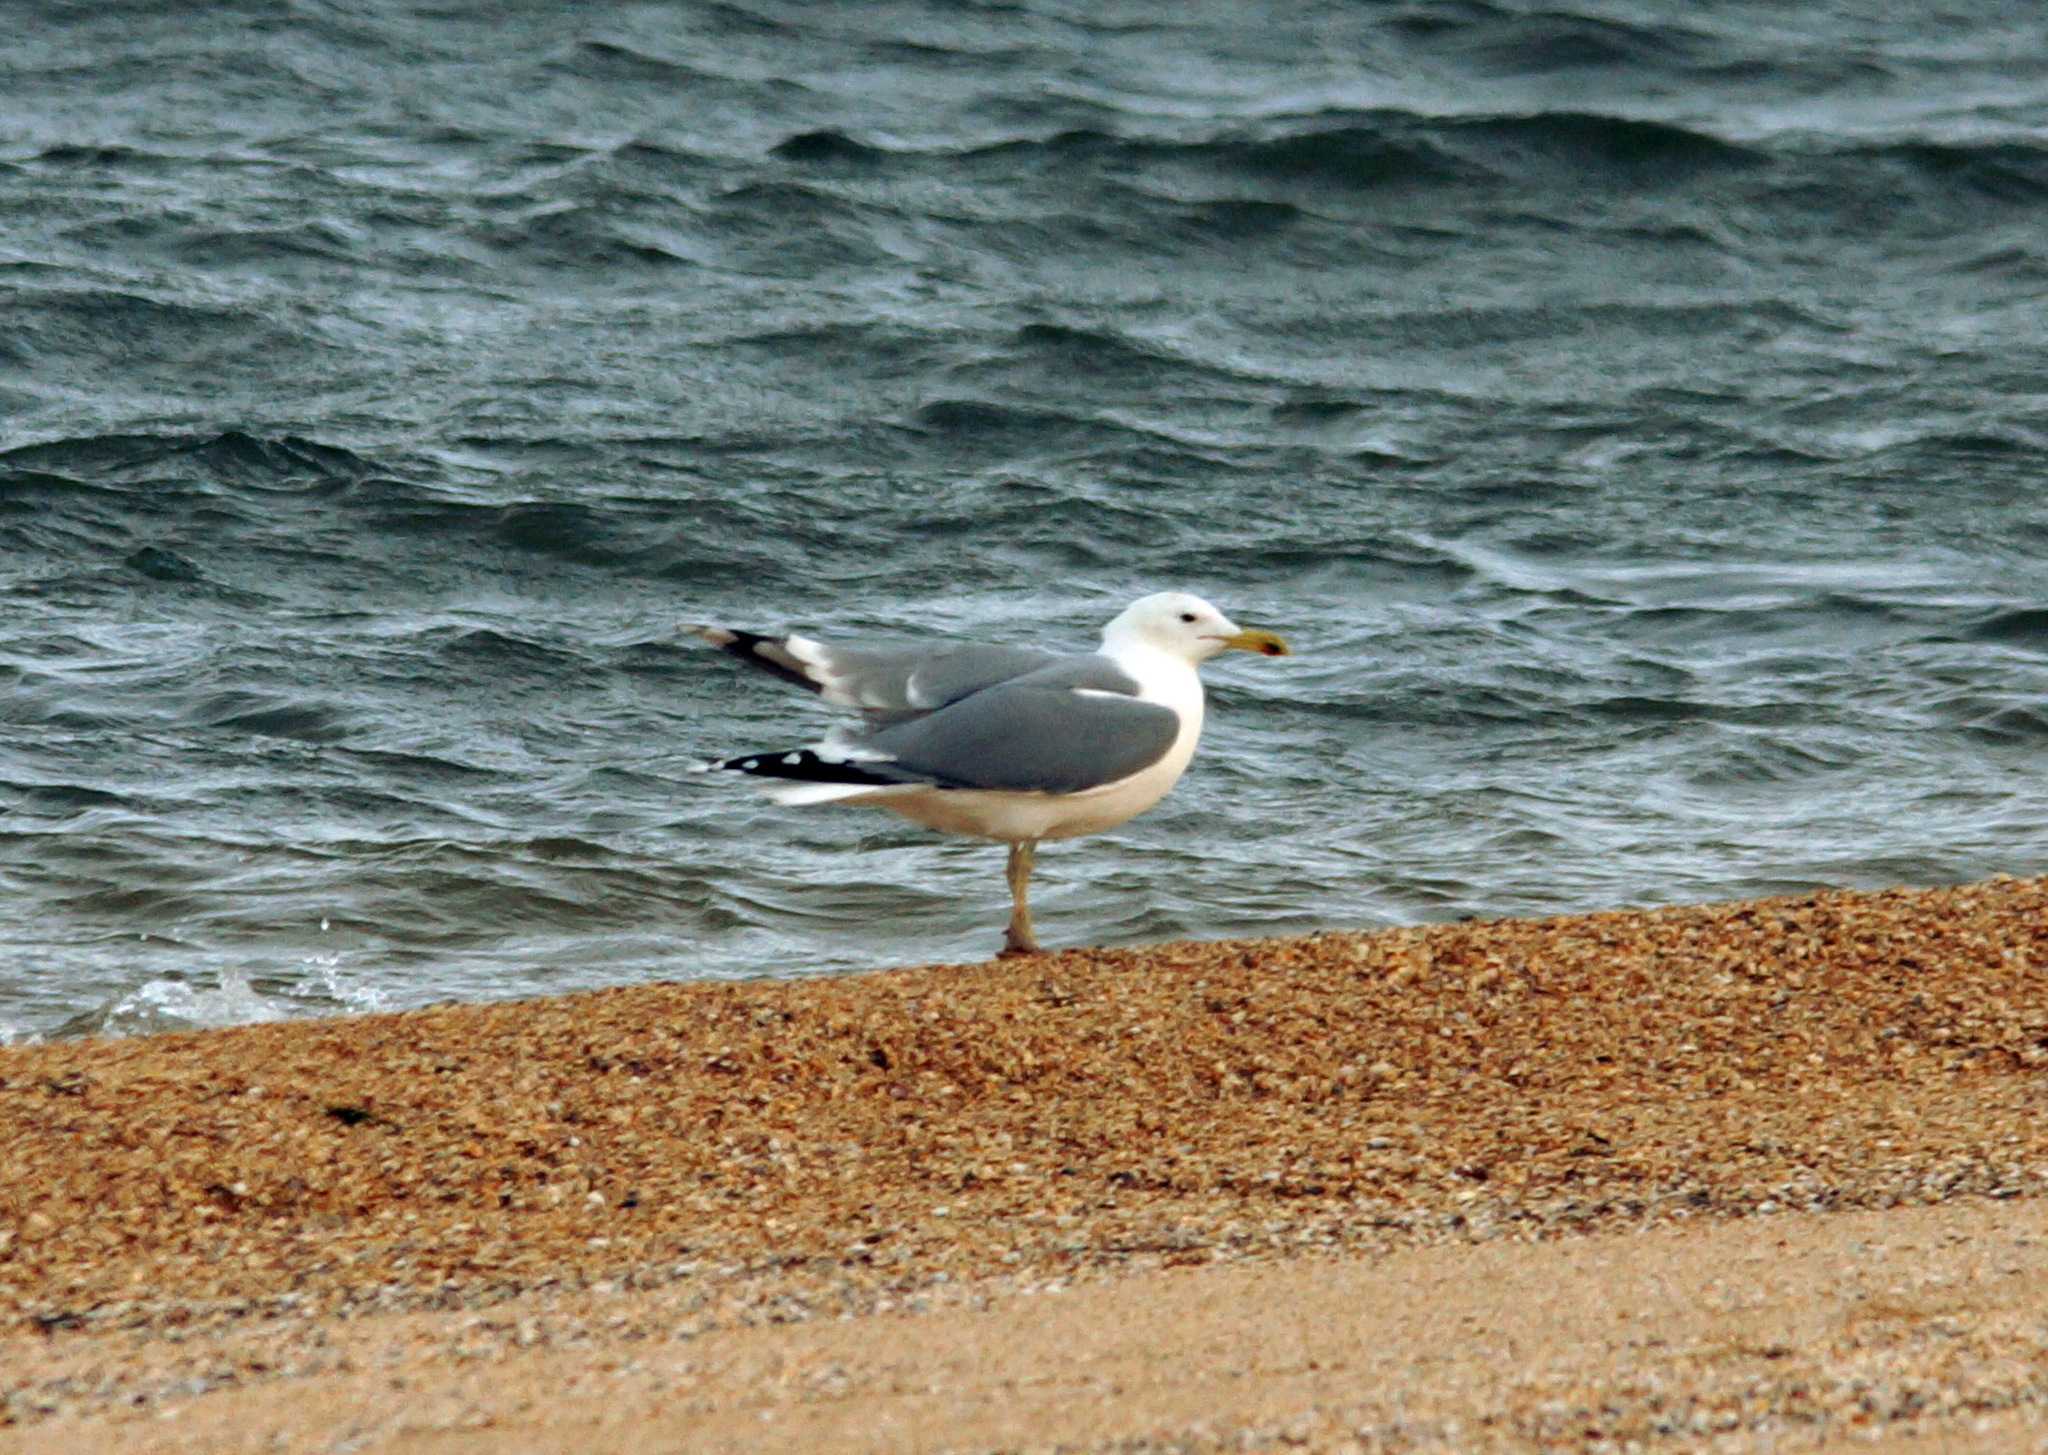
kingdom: Animalia
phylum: Chordata
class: Aves
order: Charadriiformes
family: Laridae
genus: Larus
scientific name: Larus cachinnans
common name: Caspian gull
